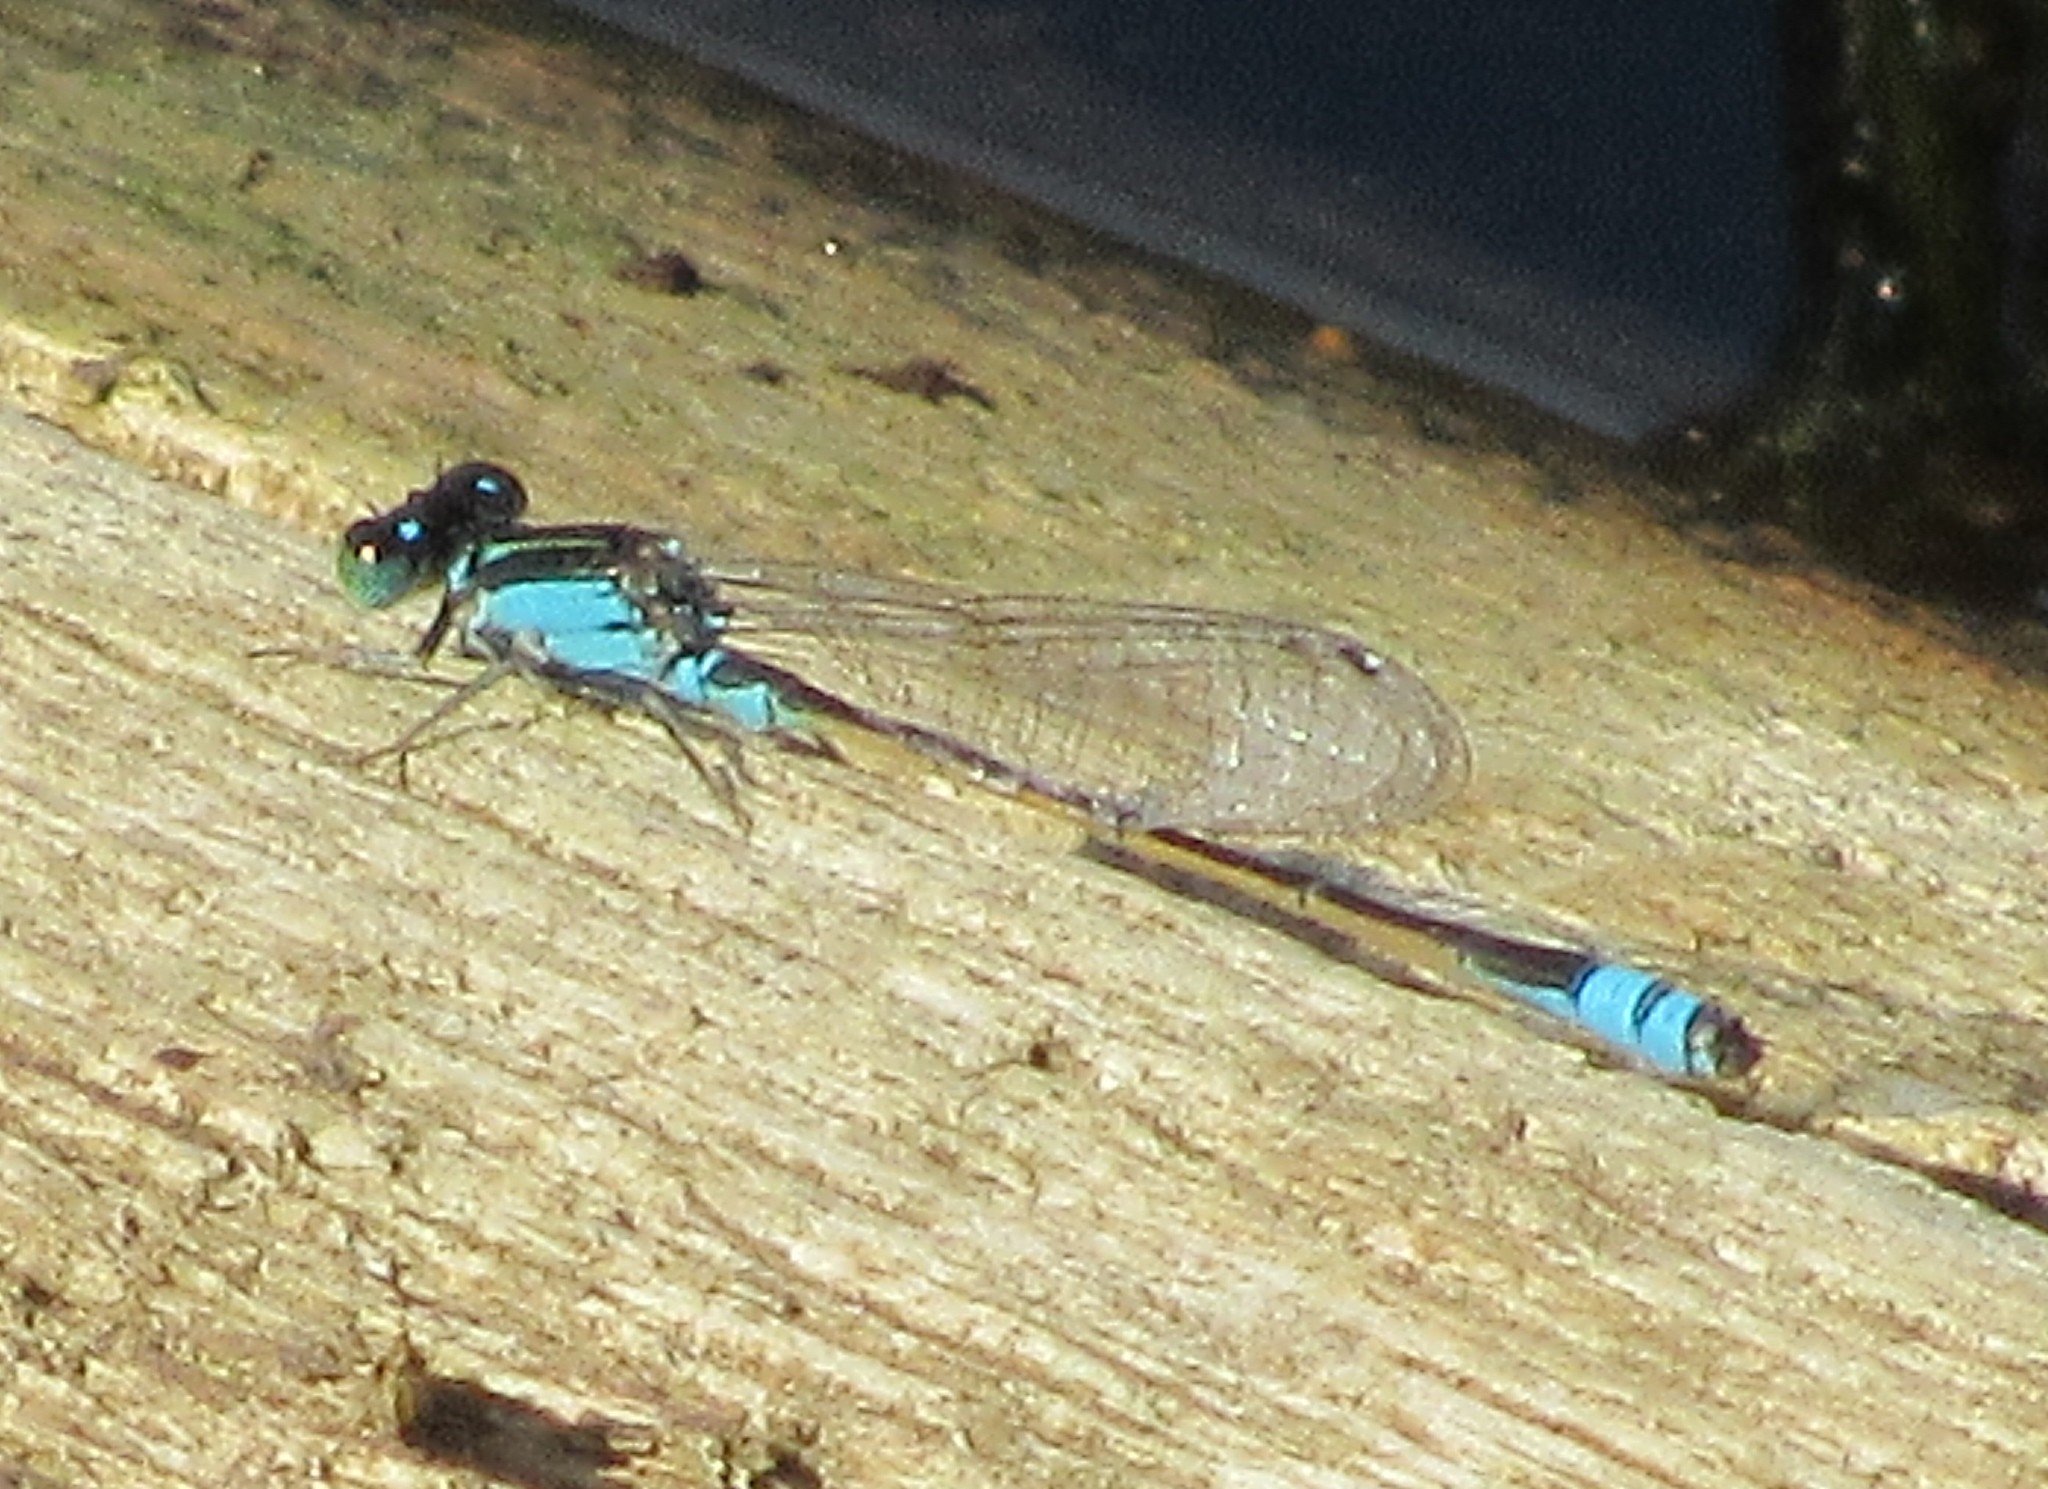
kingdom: Animalia
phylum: Arthropoda
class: Insecta
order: Odonata
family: Coenagrionidae
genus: Ischnura
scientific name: Ischnura fluviatilis
